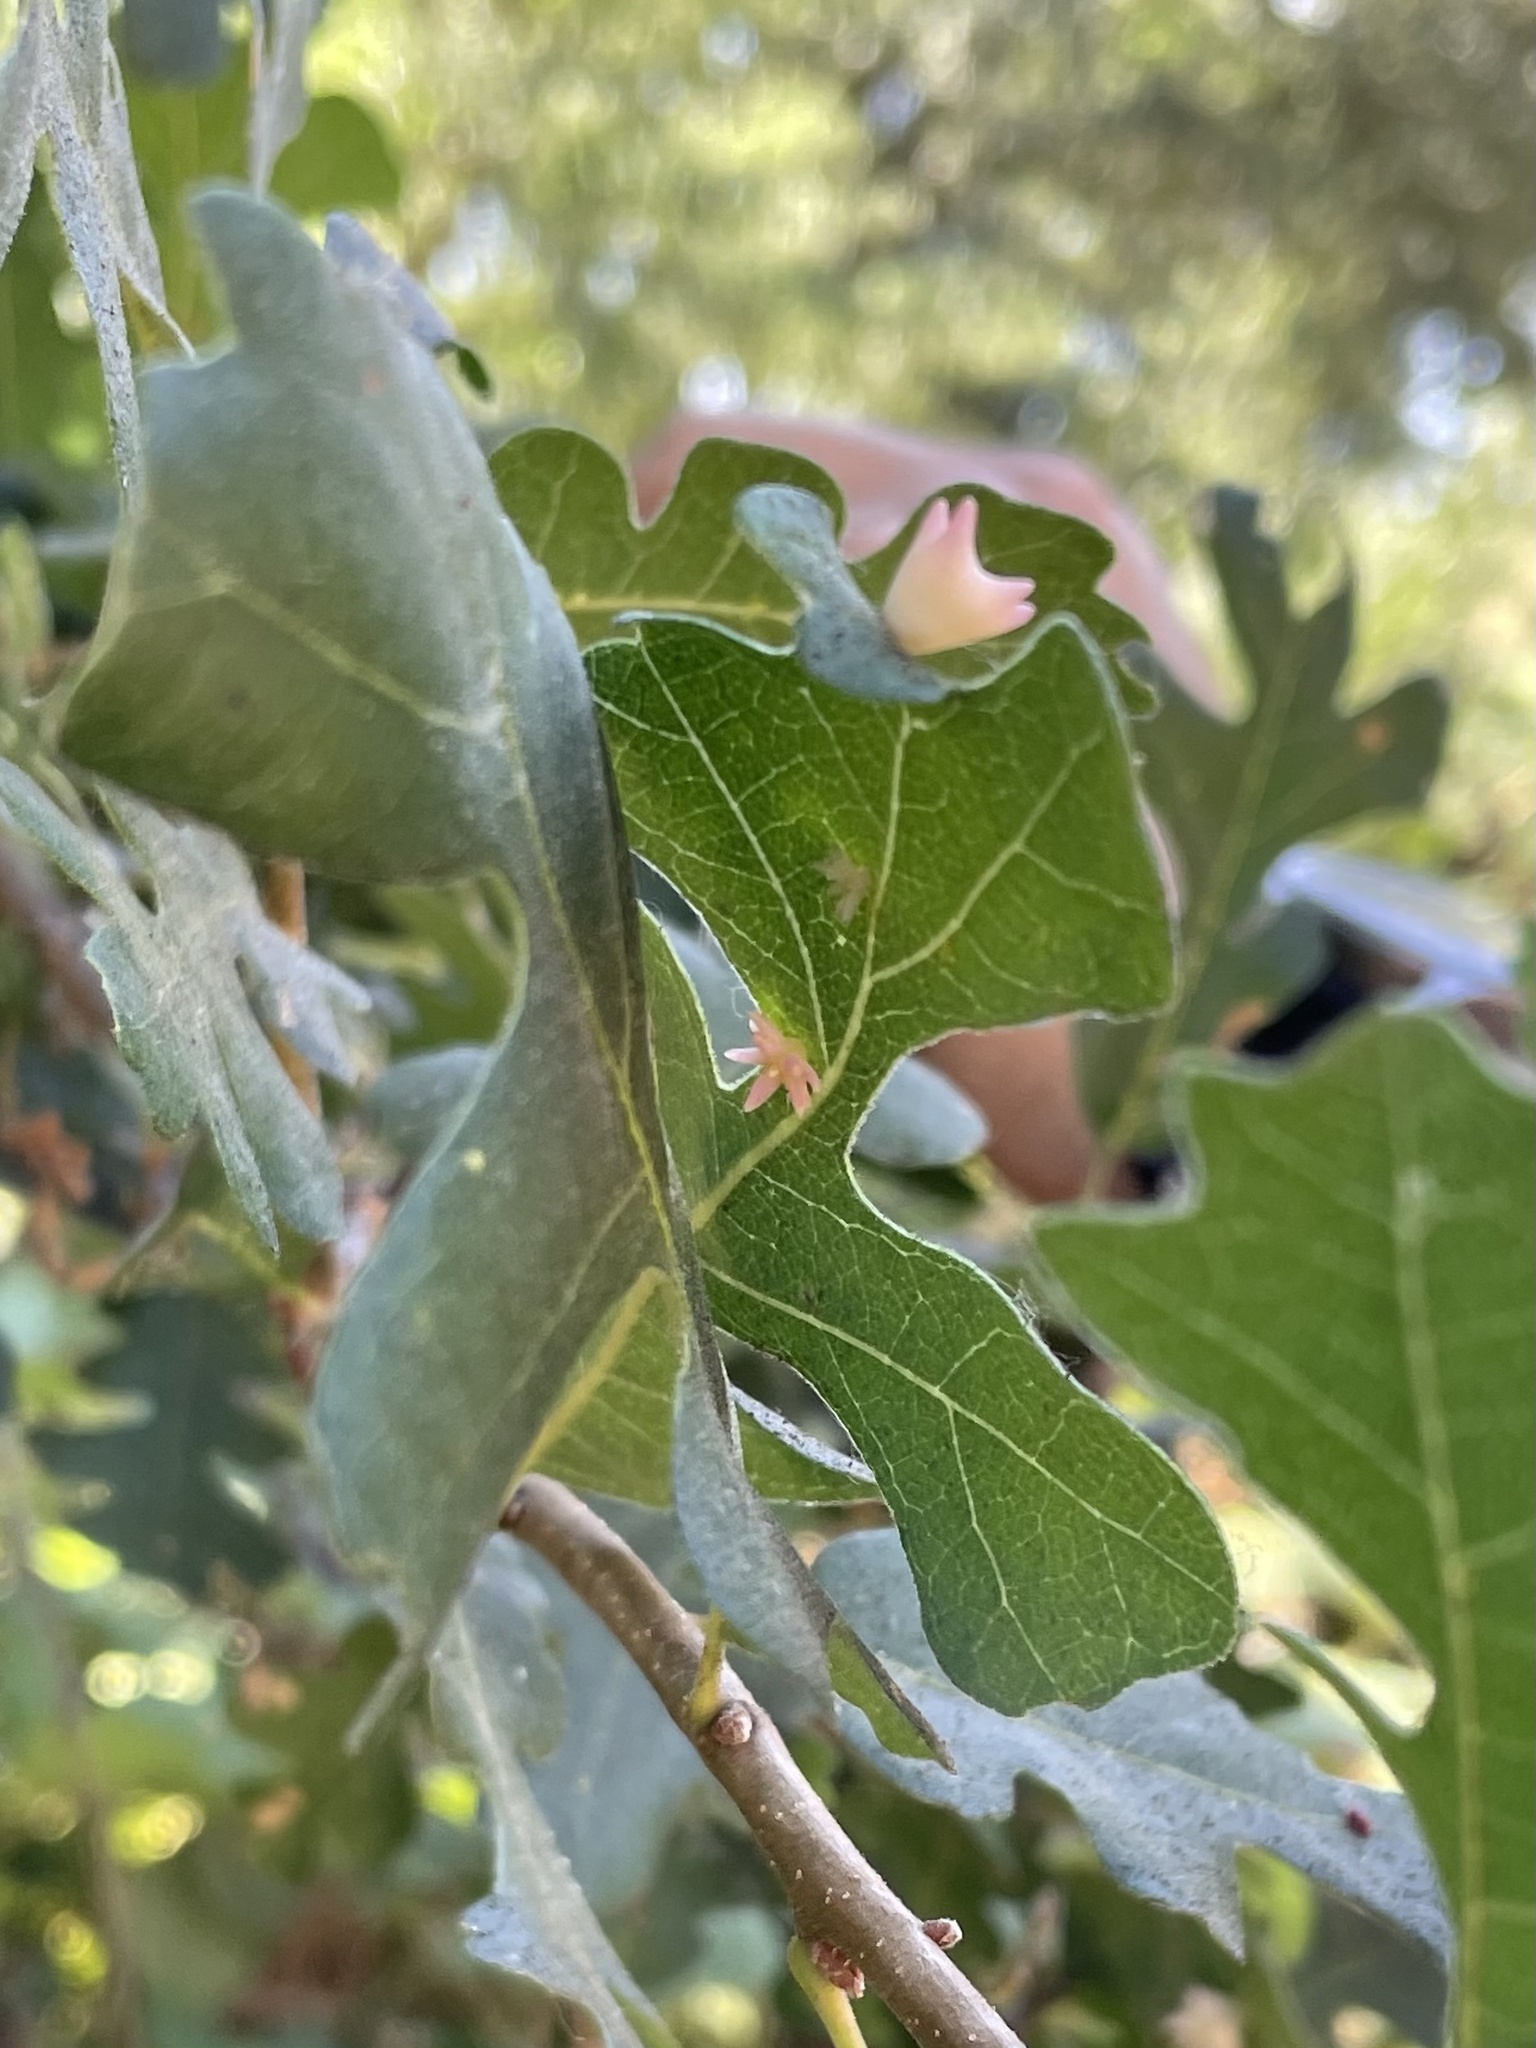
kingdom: Animalia
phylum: Arthropoda
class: Insecta
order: Hymenoptera
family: Cynipidae
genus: Cynips
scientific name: Cynips douglasi
